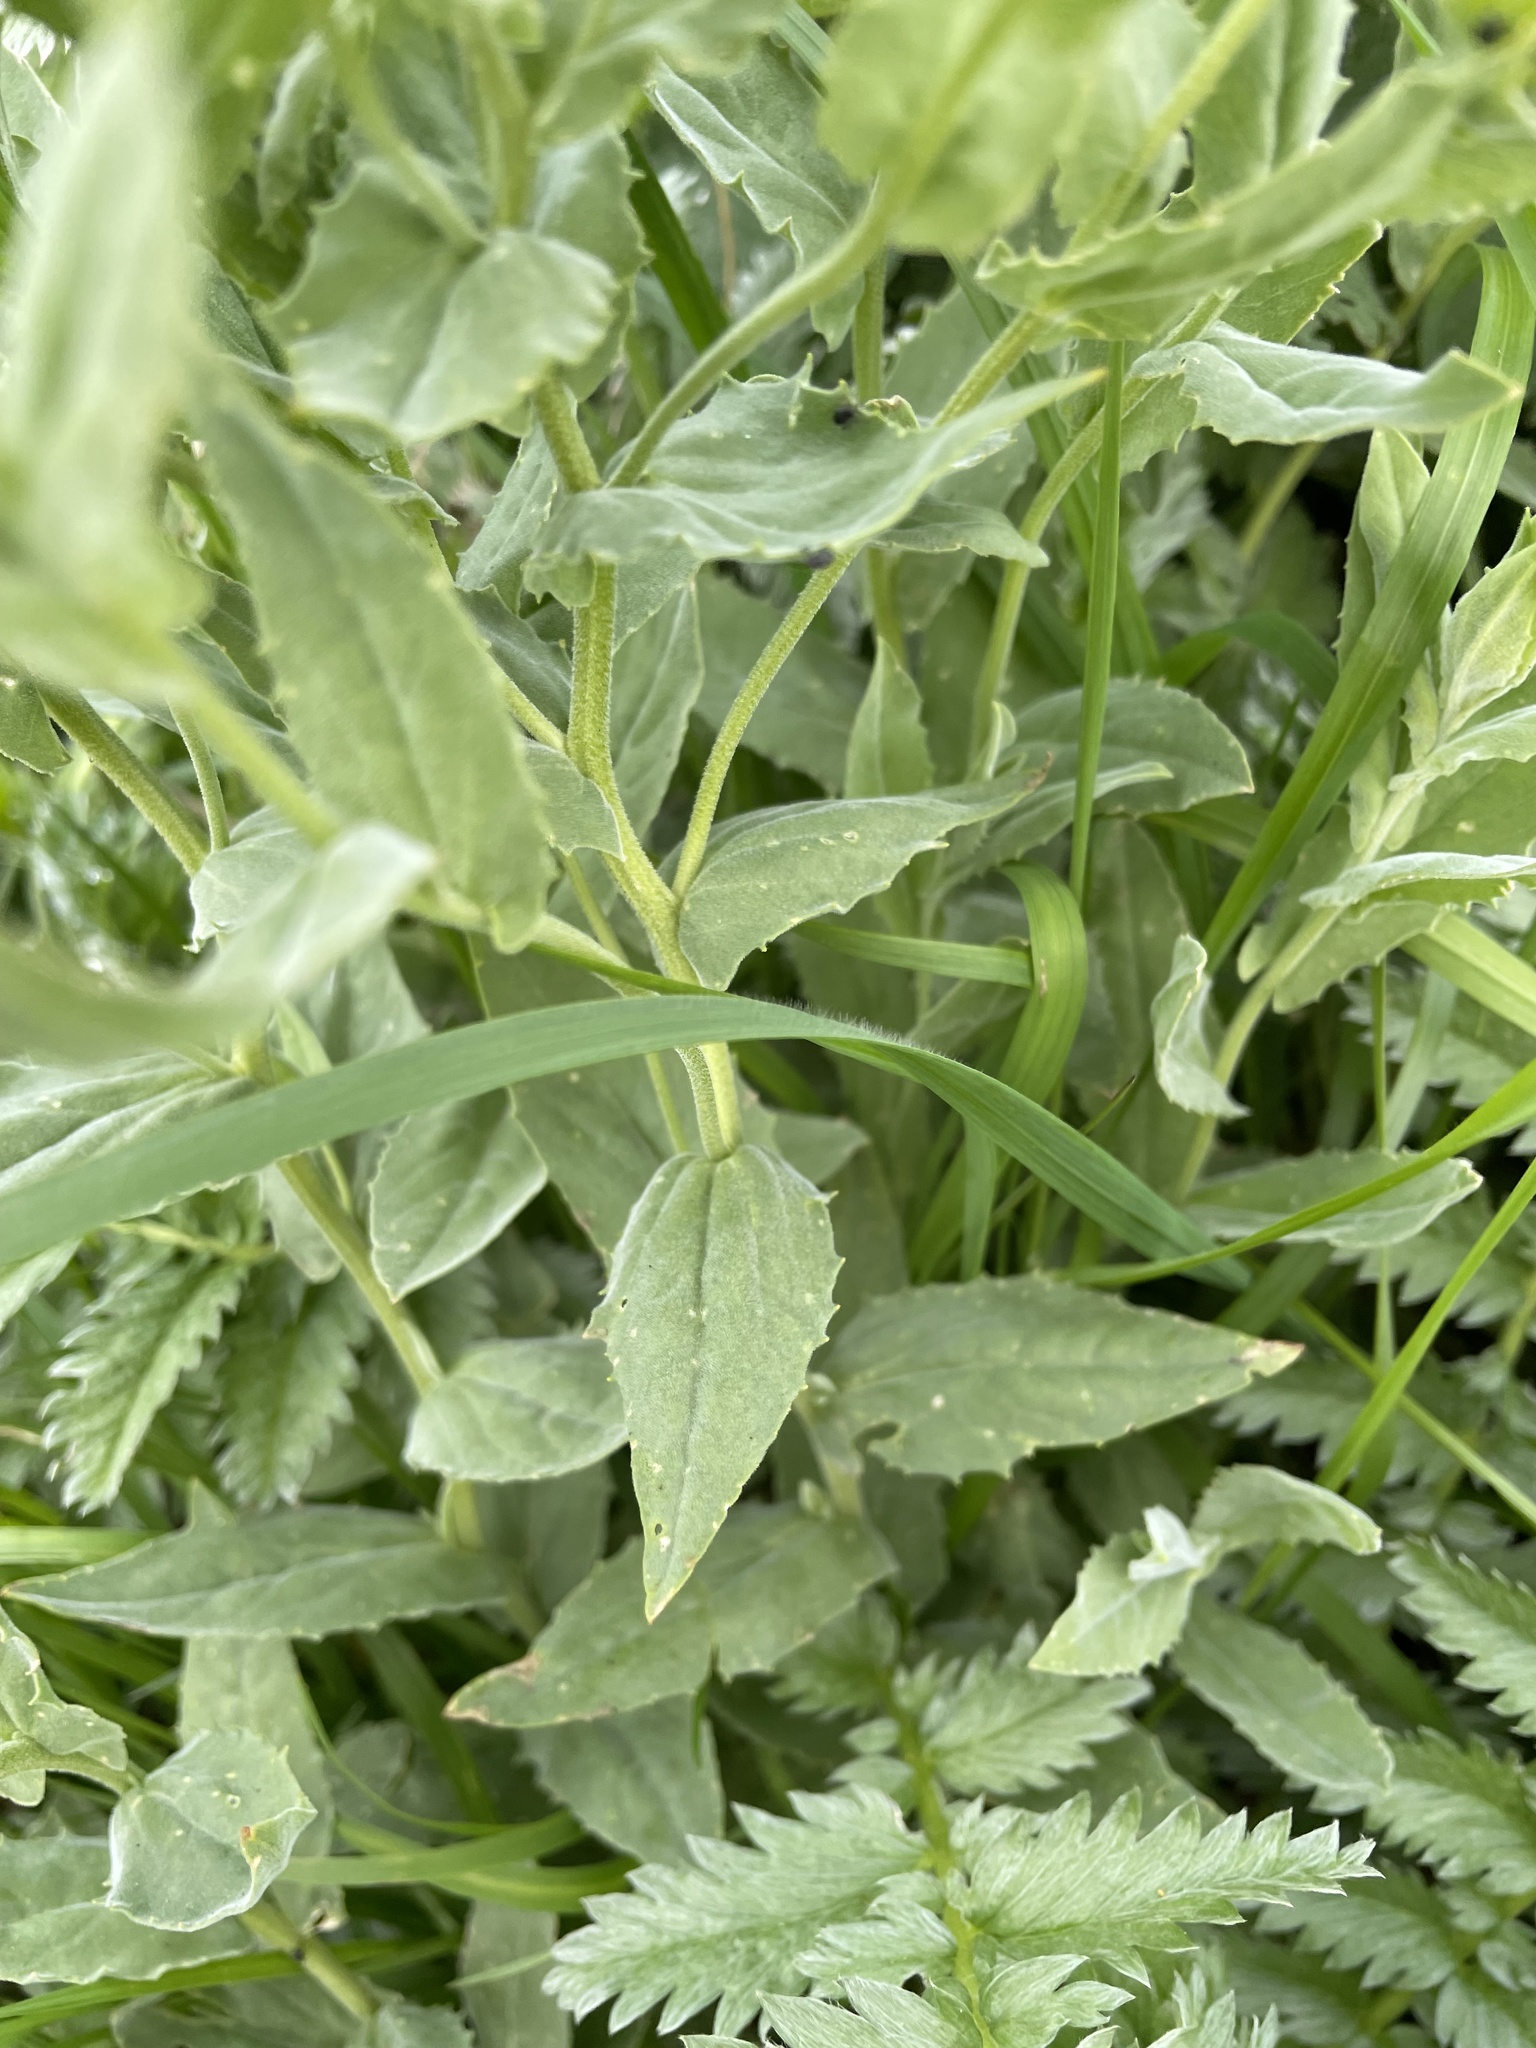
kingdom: Plantae
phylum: Tracheophyta
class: Magnoliopsida
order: Brassicales
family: Brassicaceae
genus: Lepidium
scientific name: Lepidium draba
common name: Hoary cress
